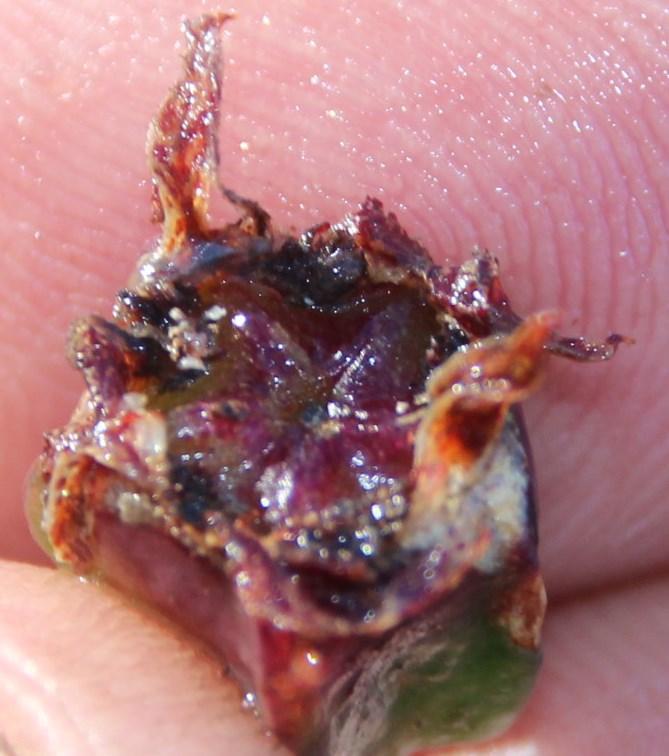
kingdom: Plantae
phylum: Tracheophyta
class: Magnoliopsida
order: Caryophyllales
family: Aizoaceae
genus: Erepsia
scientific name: Erepsia pentagona
